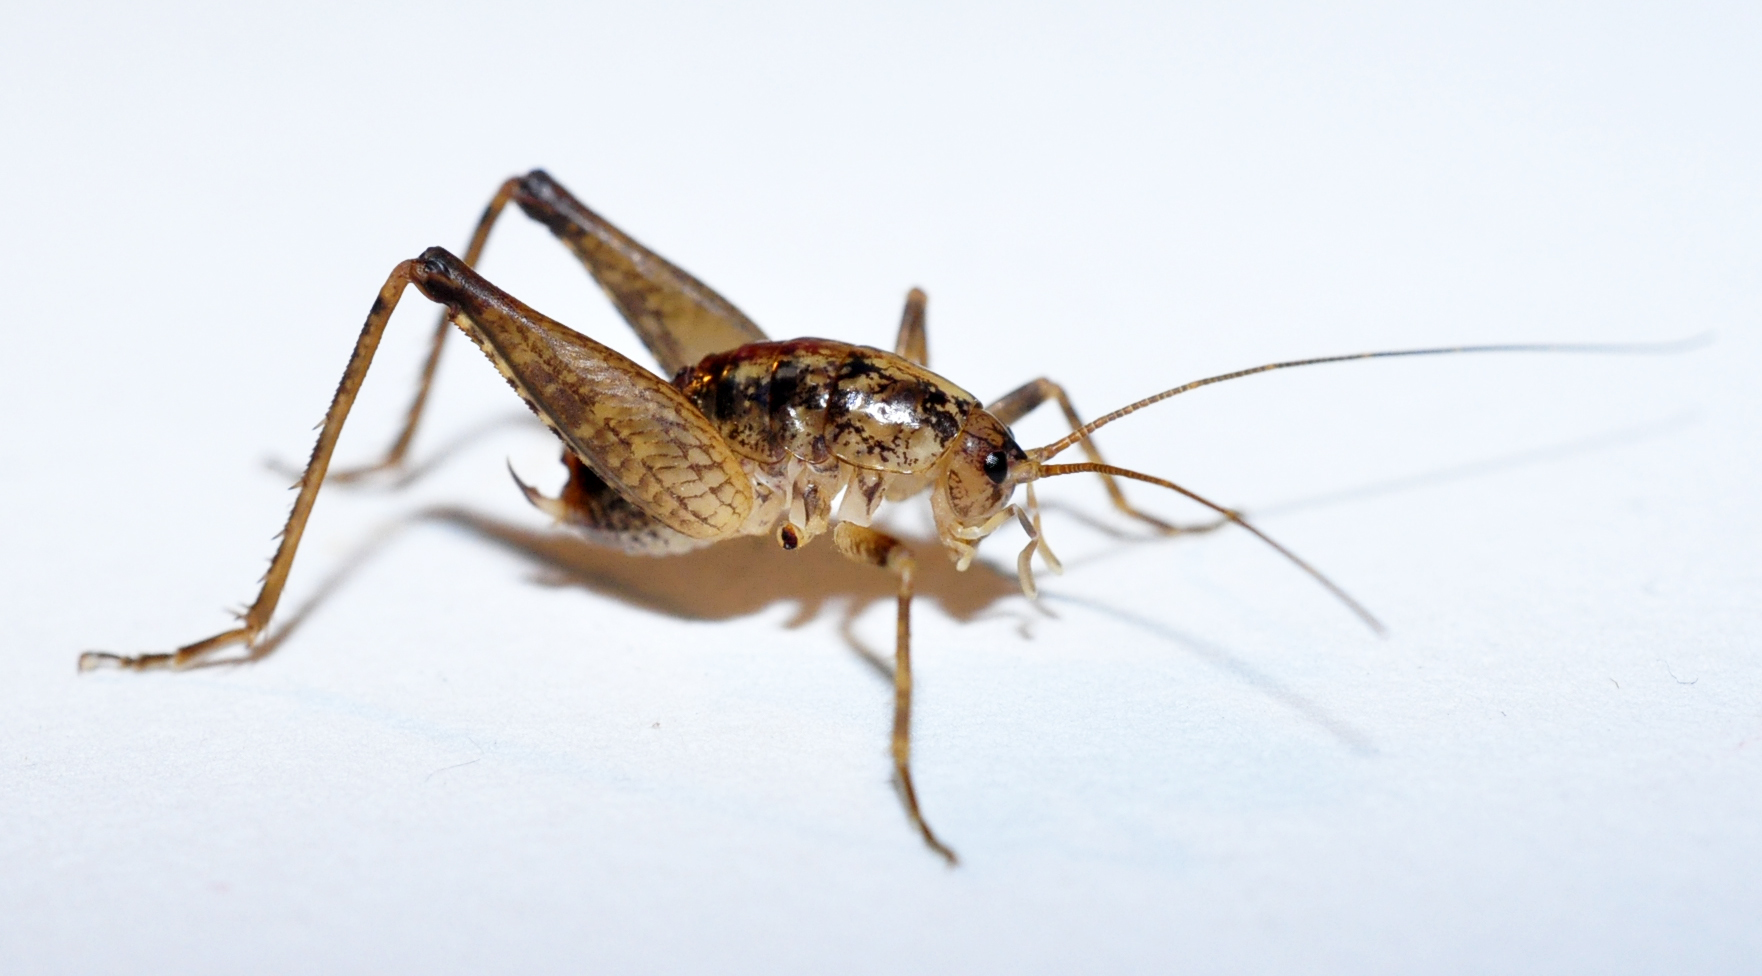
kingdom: Animalia
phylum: Arthropoda
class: Insecta
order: Orthoptera
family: Rhaphidophoridae
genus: Pristoceuthophilus
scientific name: Pristoceuthophilus celatus
